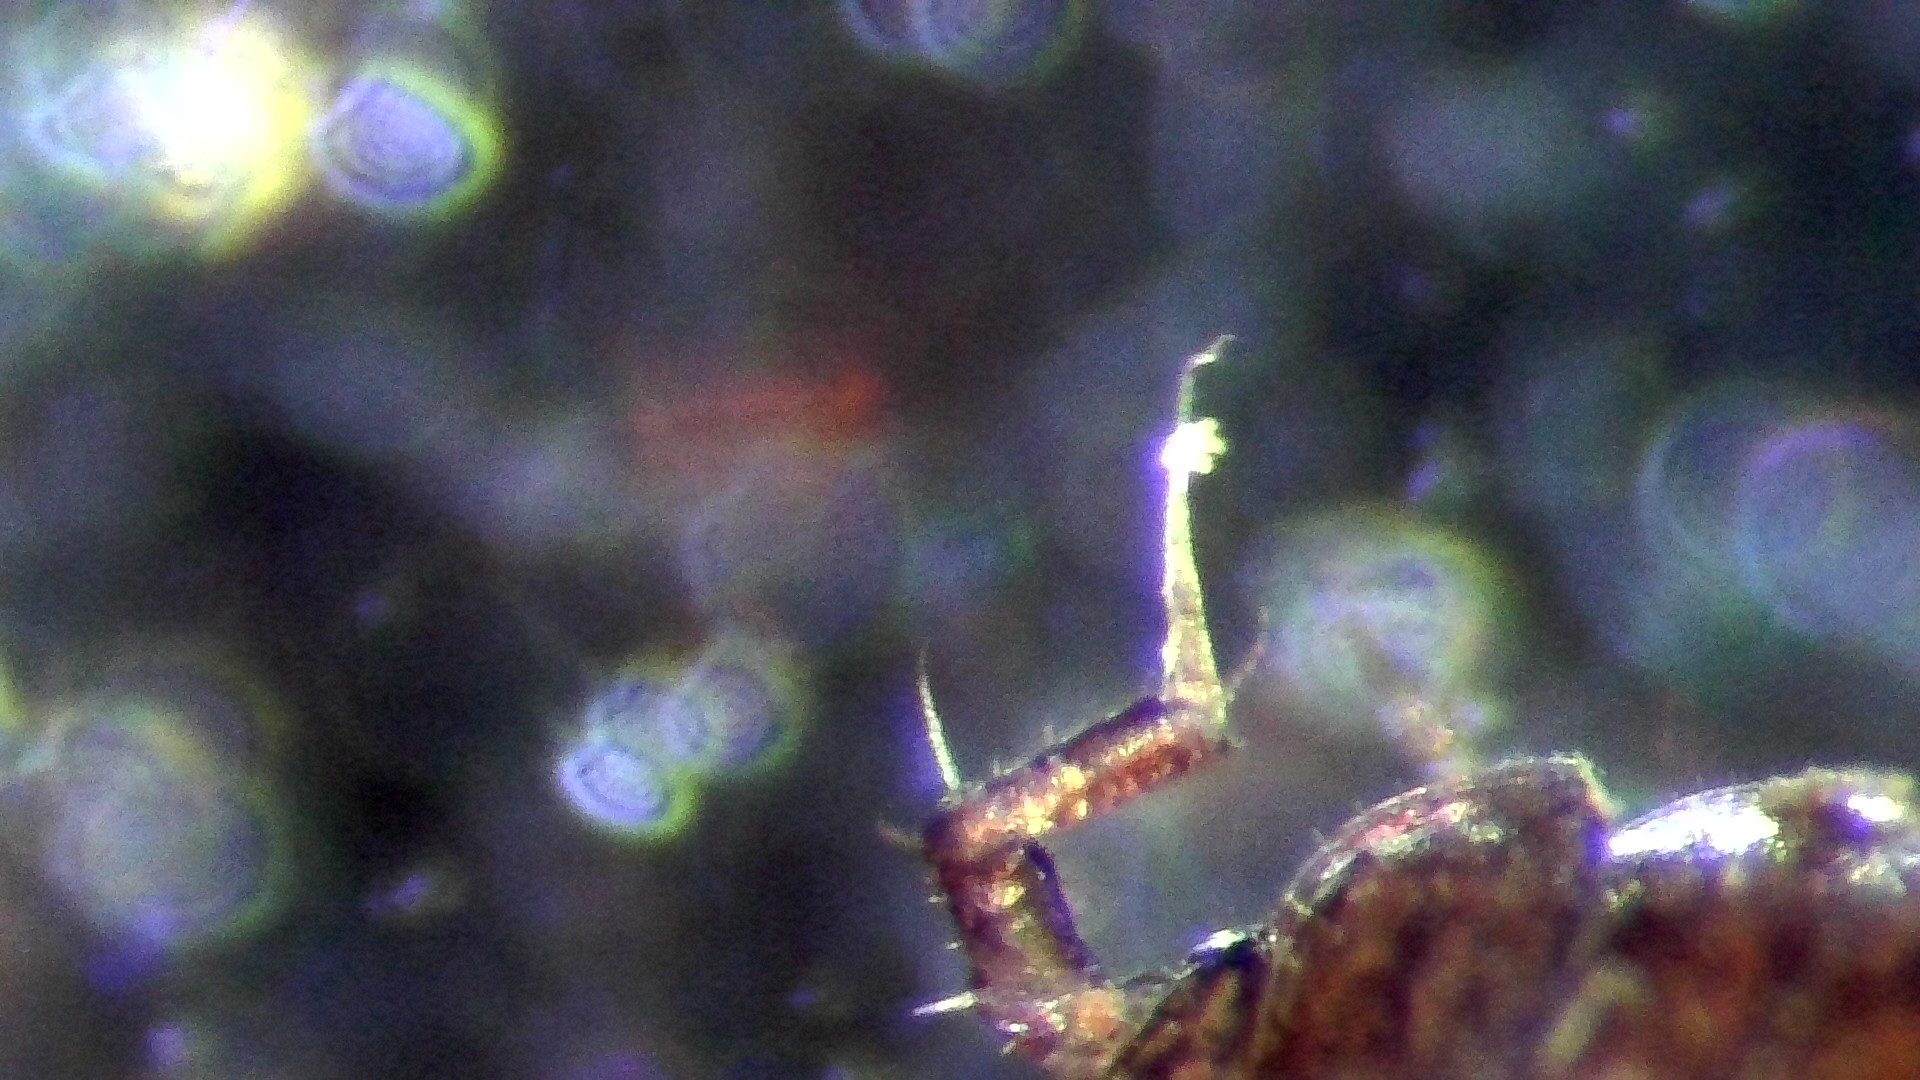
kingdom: Animalia
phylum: Arthropoda
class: Malacostraca
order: Isopoda
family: Trichoniscidae
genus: Trichoniscus
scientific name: Trichoniscus
